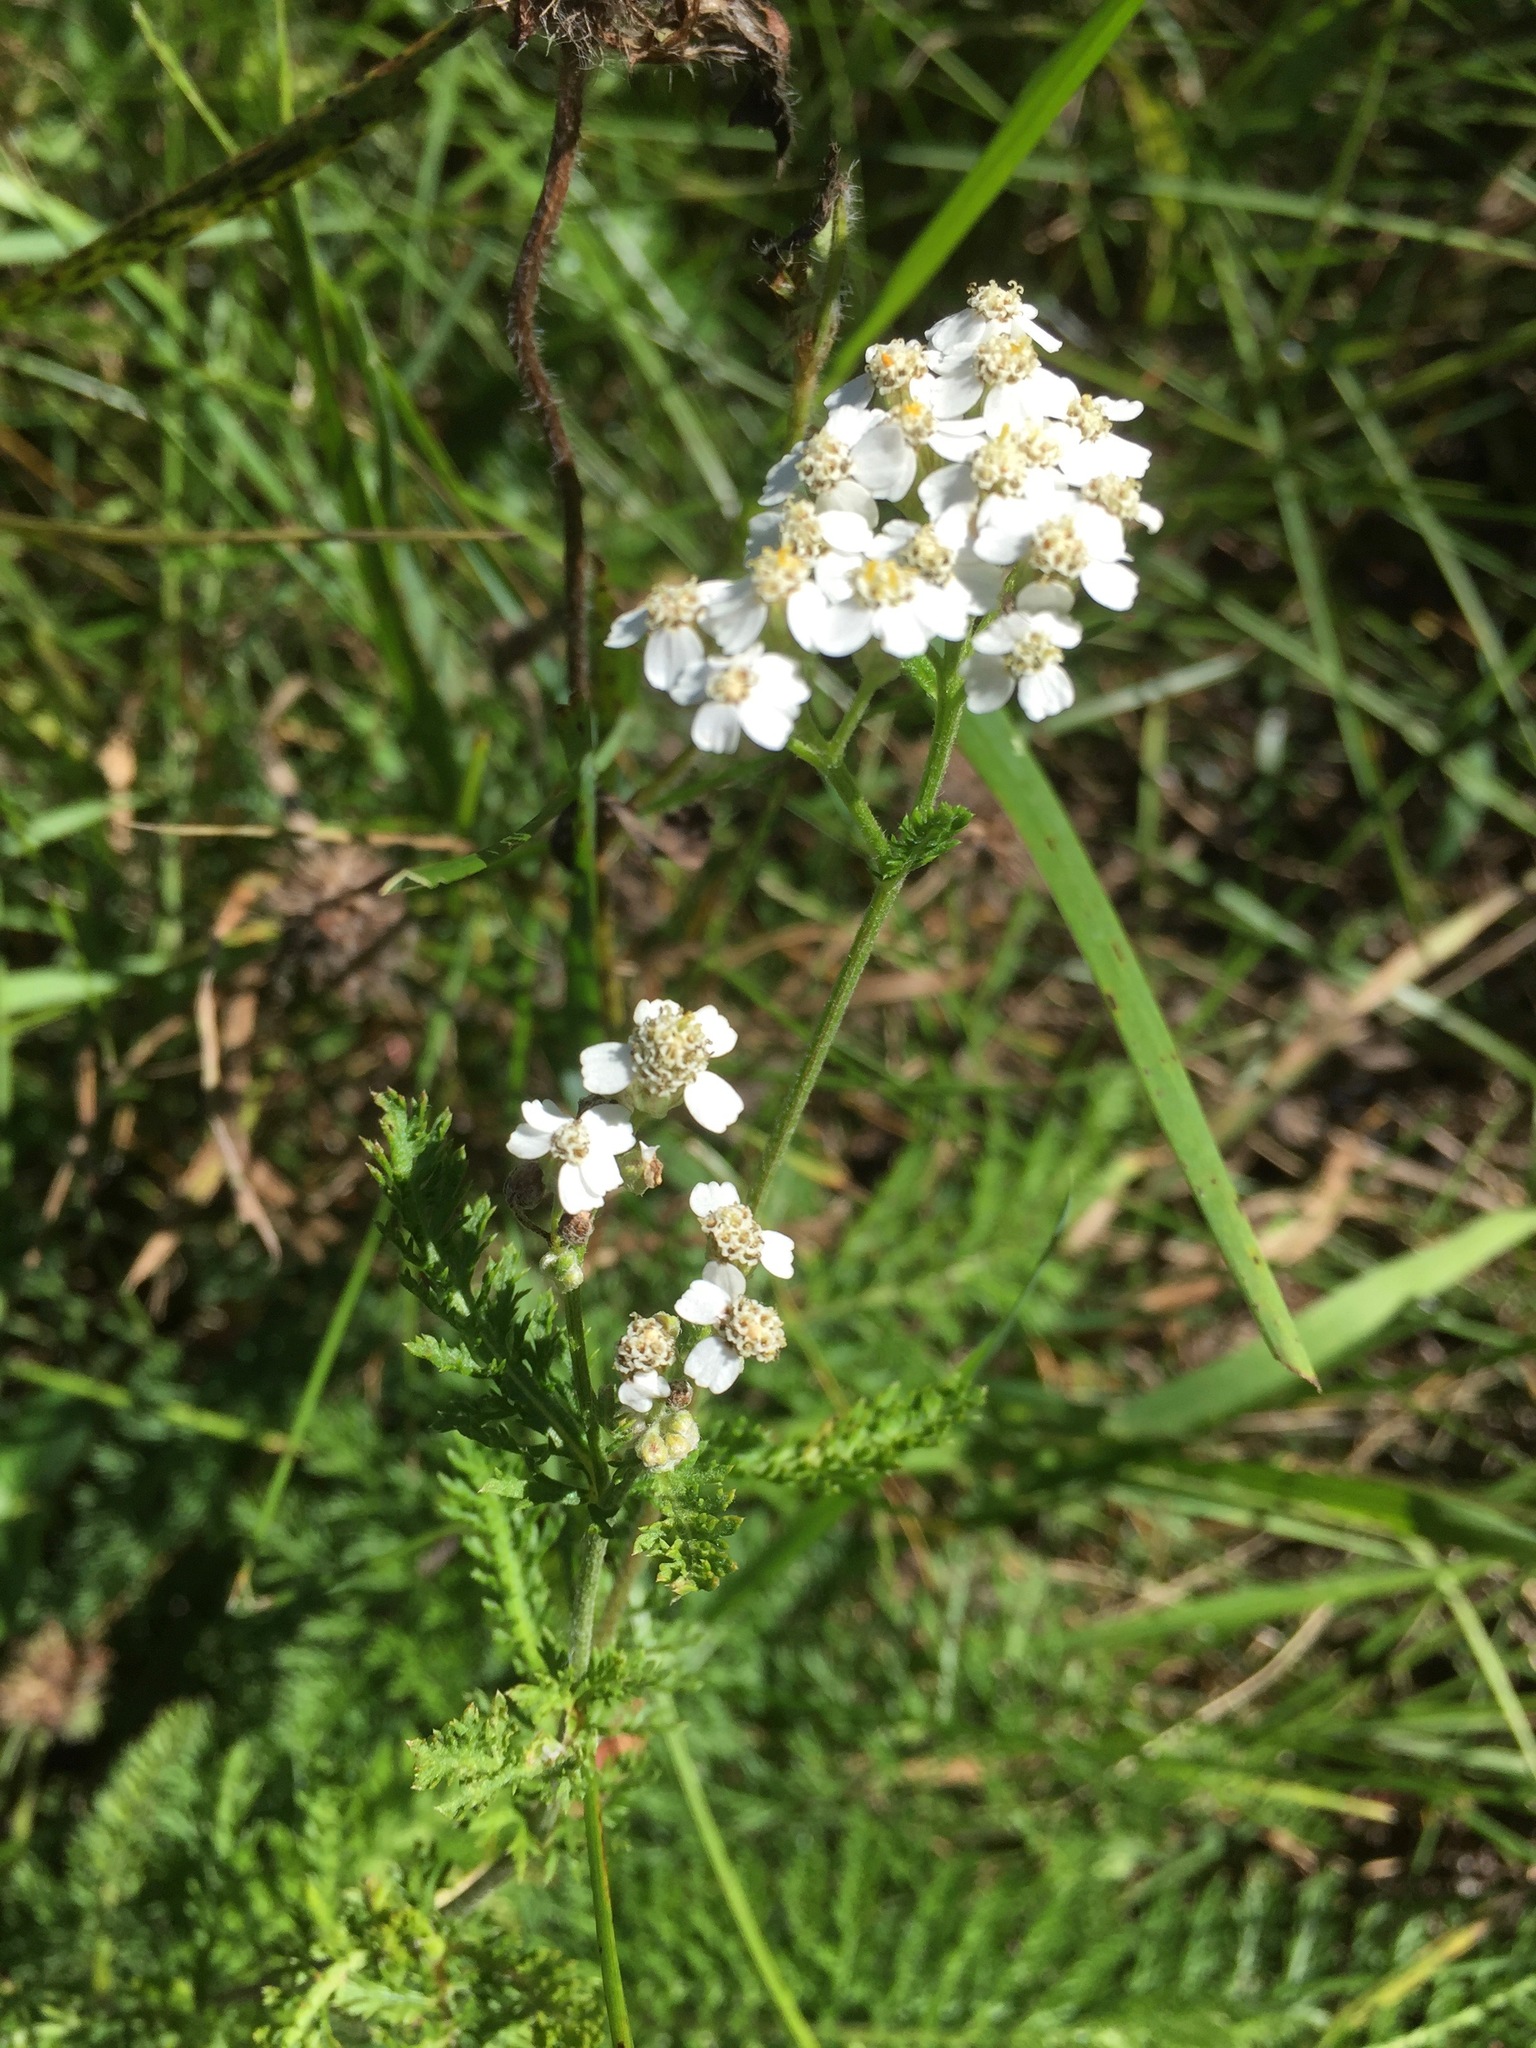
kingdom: Plantae
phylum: Tracheophyta
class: Magnoliopsida
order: Asterales
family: Asteraceae
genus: Achillea
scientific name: Achillea millefolium
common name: Yarrow
